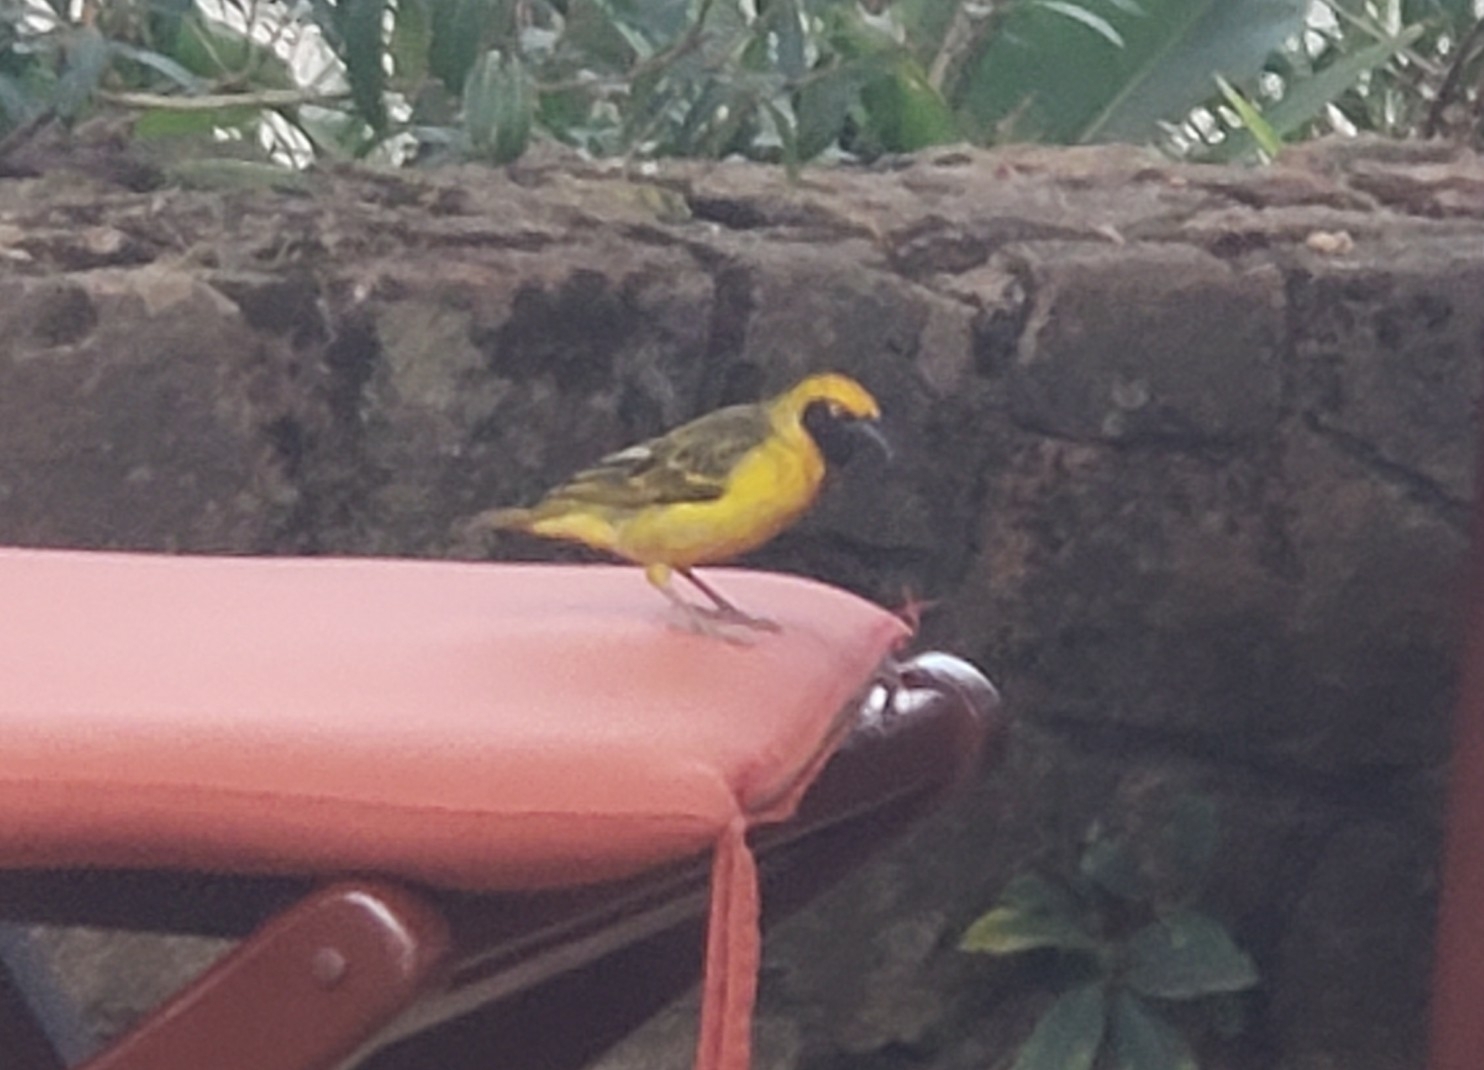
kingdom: Animalia
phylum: Chordata
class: Aves
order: Passeriformes
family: Ploceidae
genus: Ploceus
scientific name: Ploceus spekei
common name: Speke's weaver
